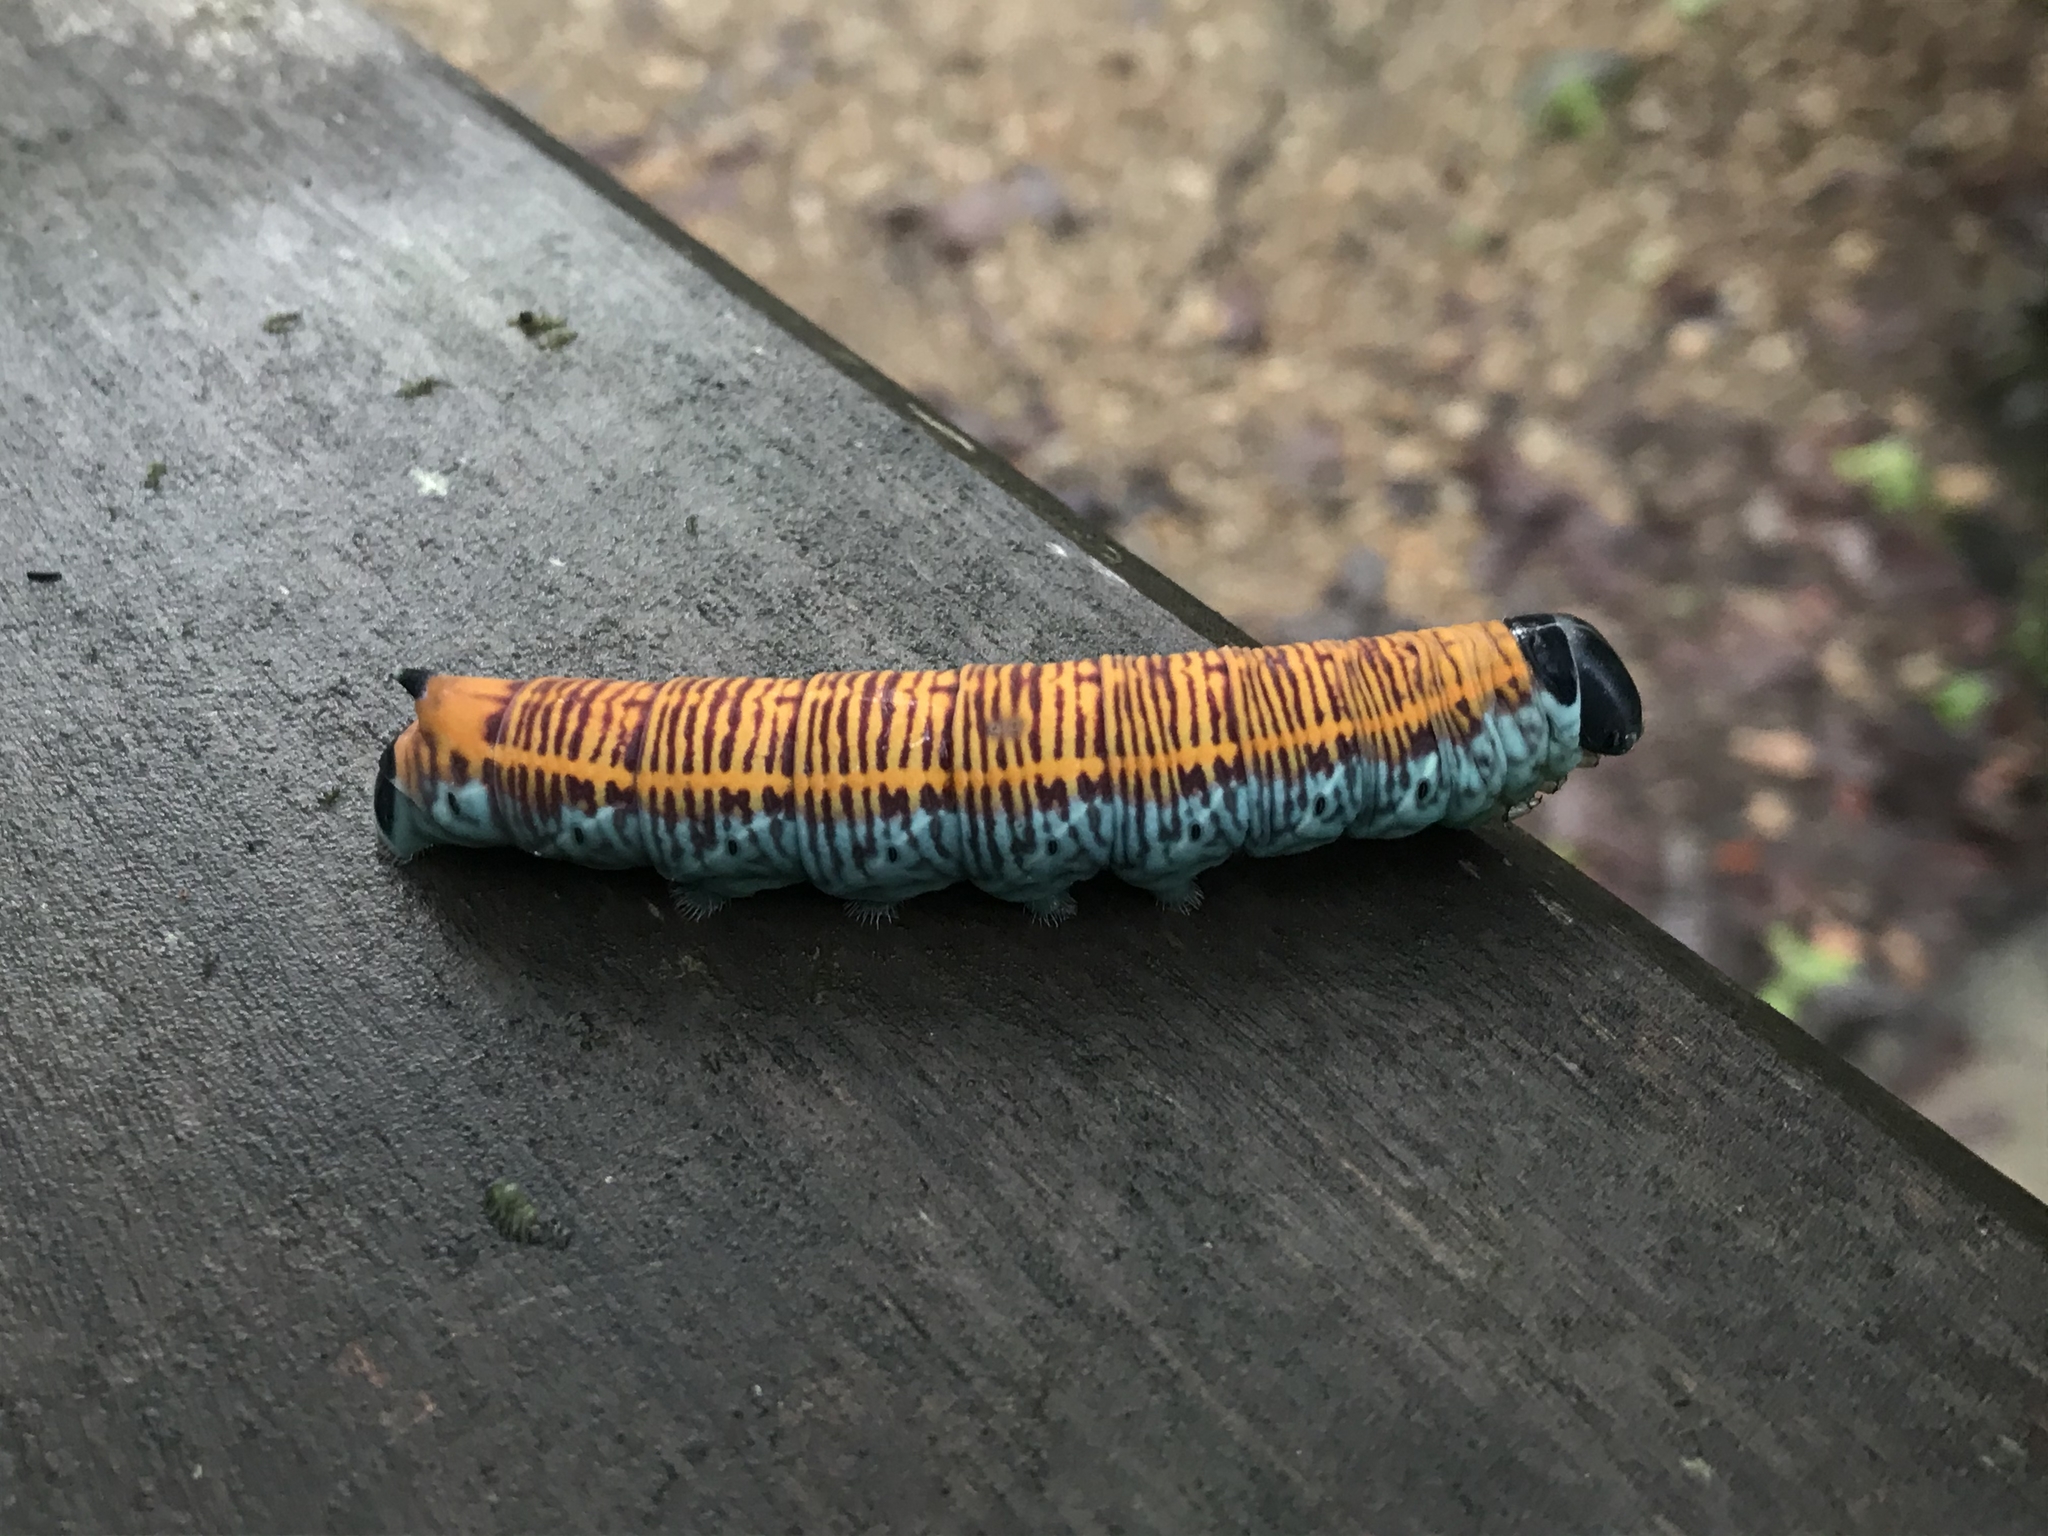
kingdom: Animalia
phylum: Arthropoda
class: Insecta
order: Lepidoptera
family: Sphingidae
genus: Pachylia
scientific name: Pachylia ficus
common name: Fig sphinx
